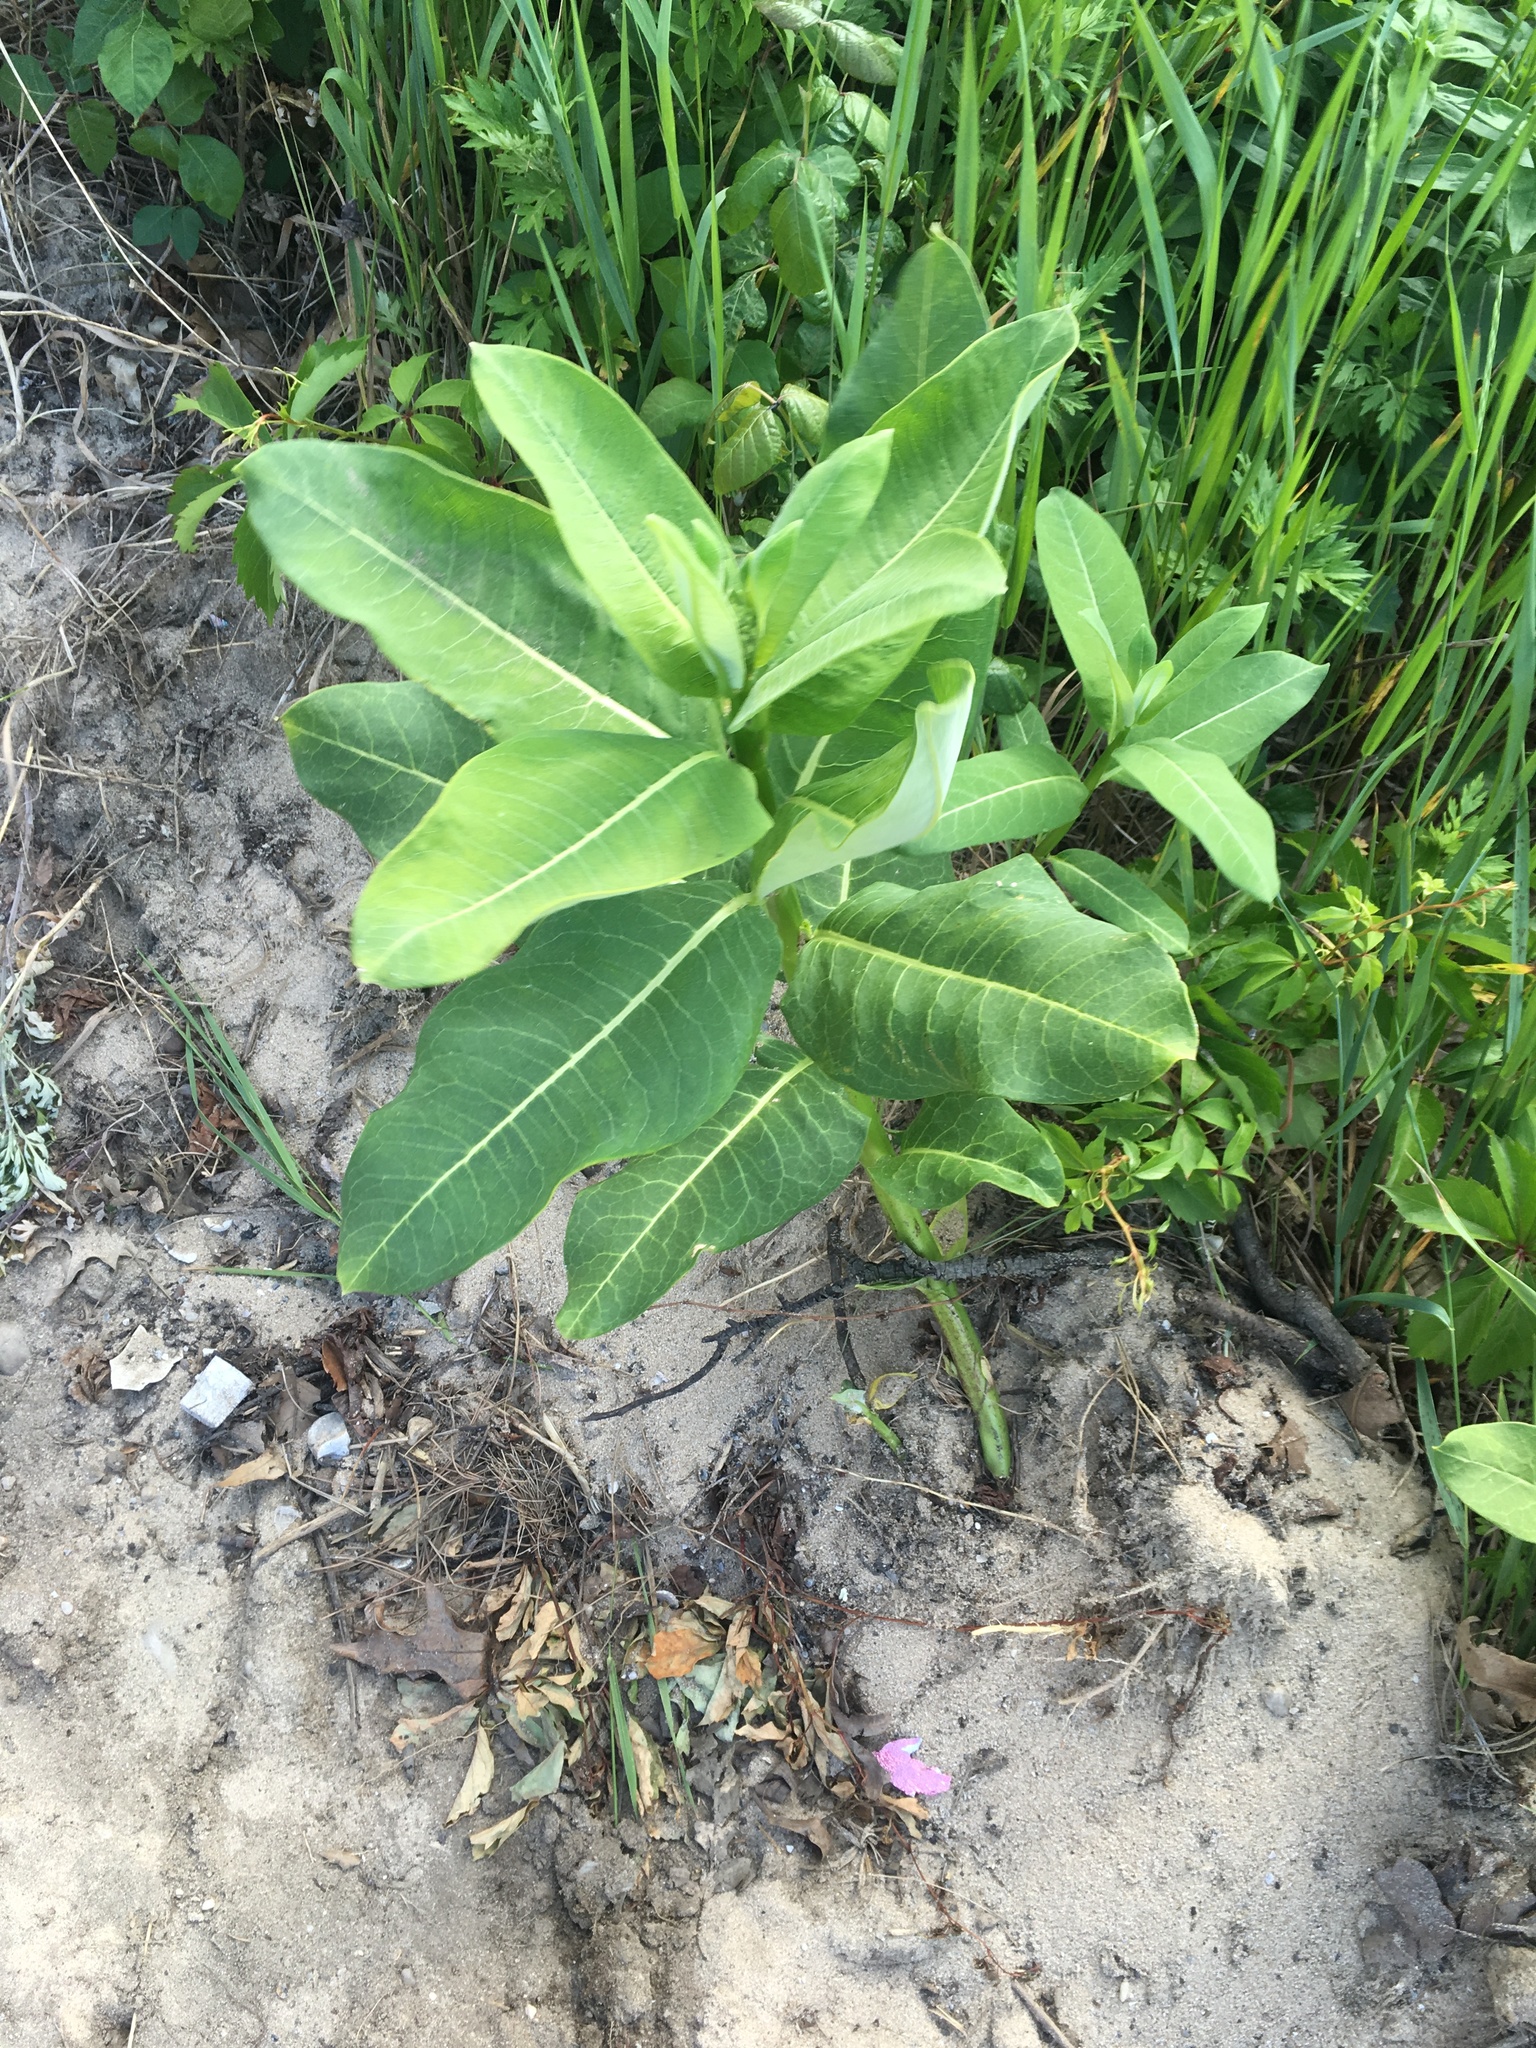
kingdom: Plantae
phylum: Tracheophyta
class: Magnoliopsida
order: Gentianales
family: Apocynaceae
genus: Asclepias
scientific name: Asclepias syriaca
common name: Common milkweed
